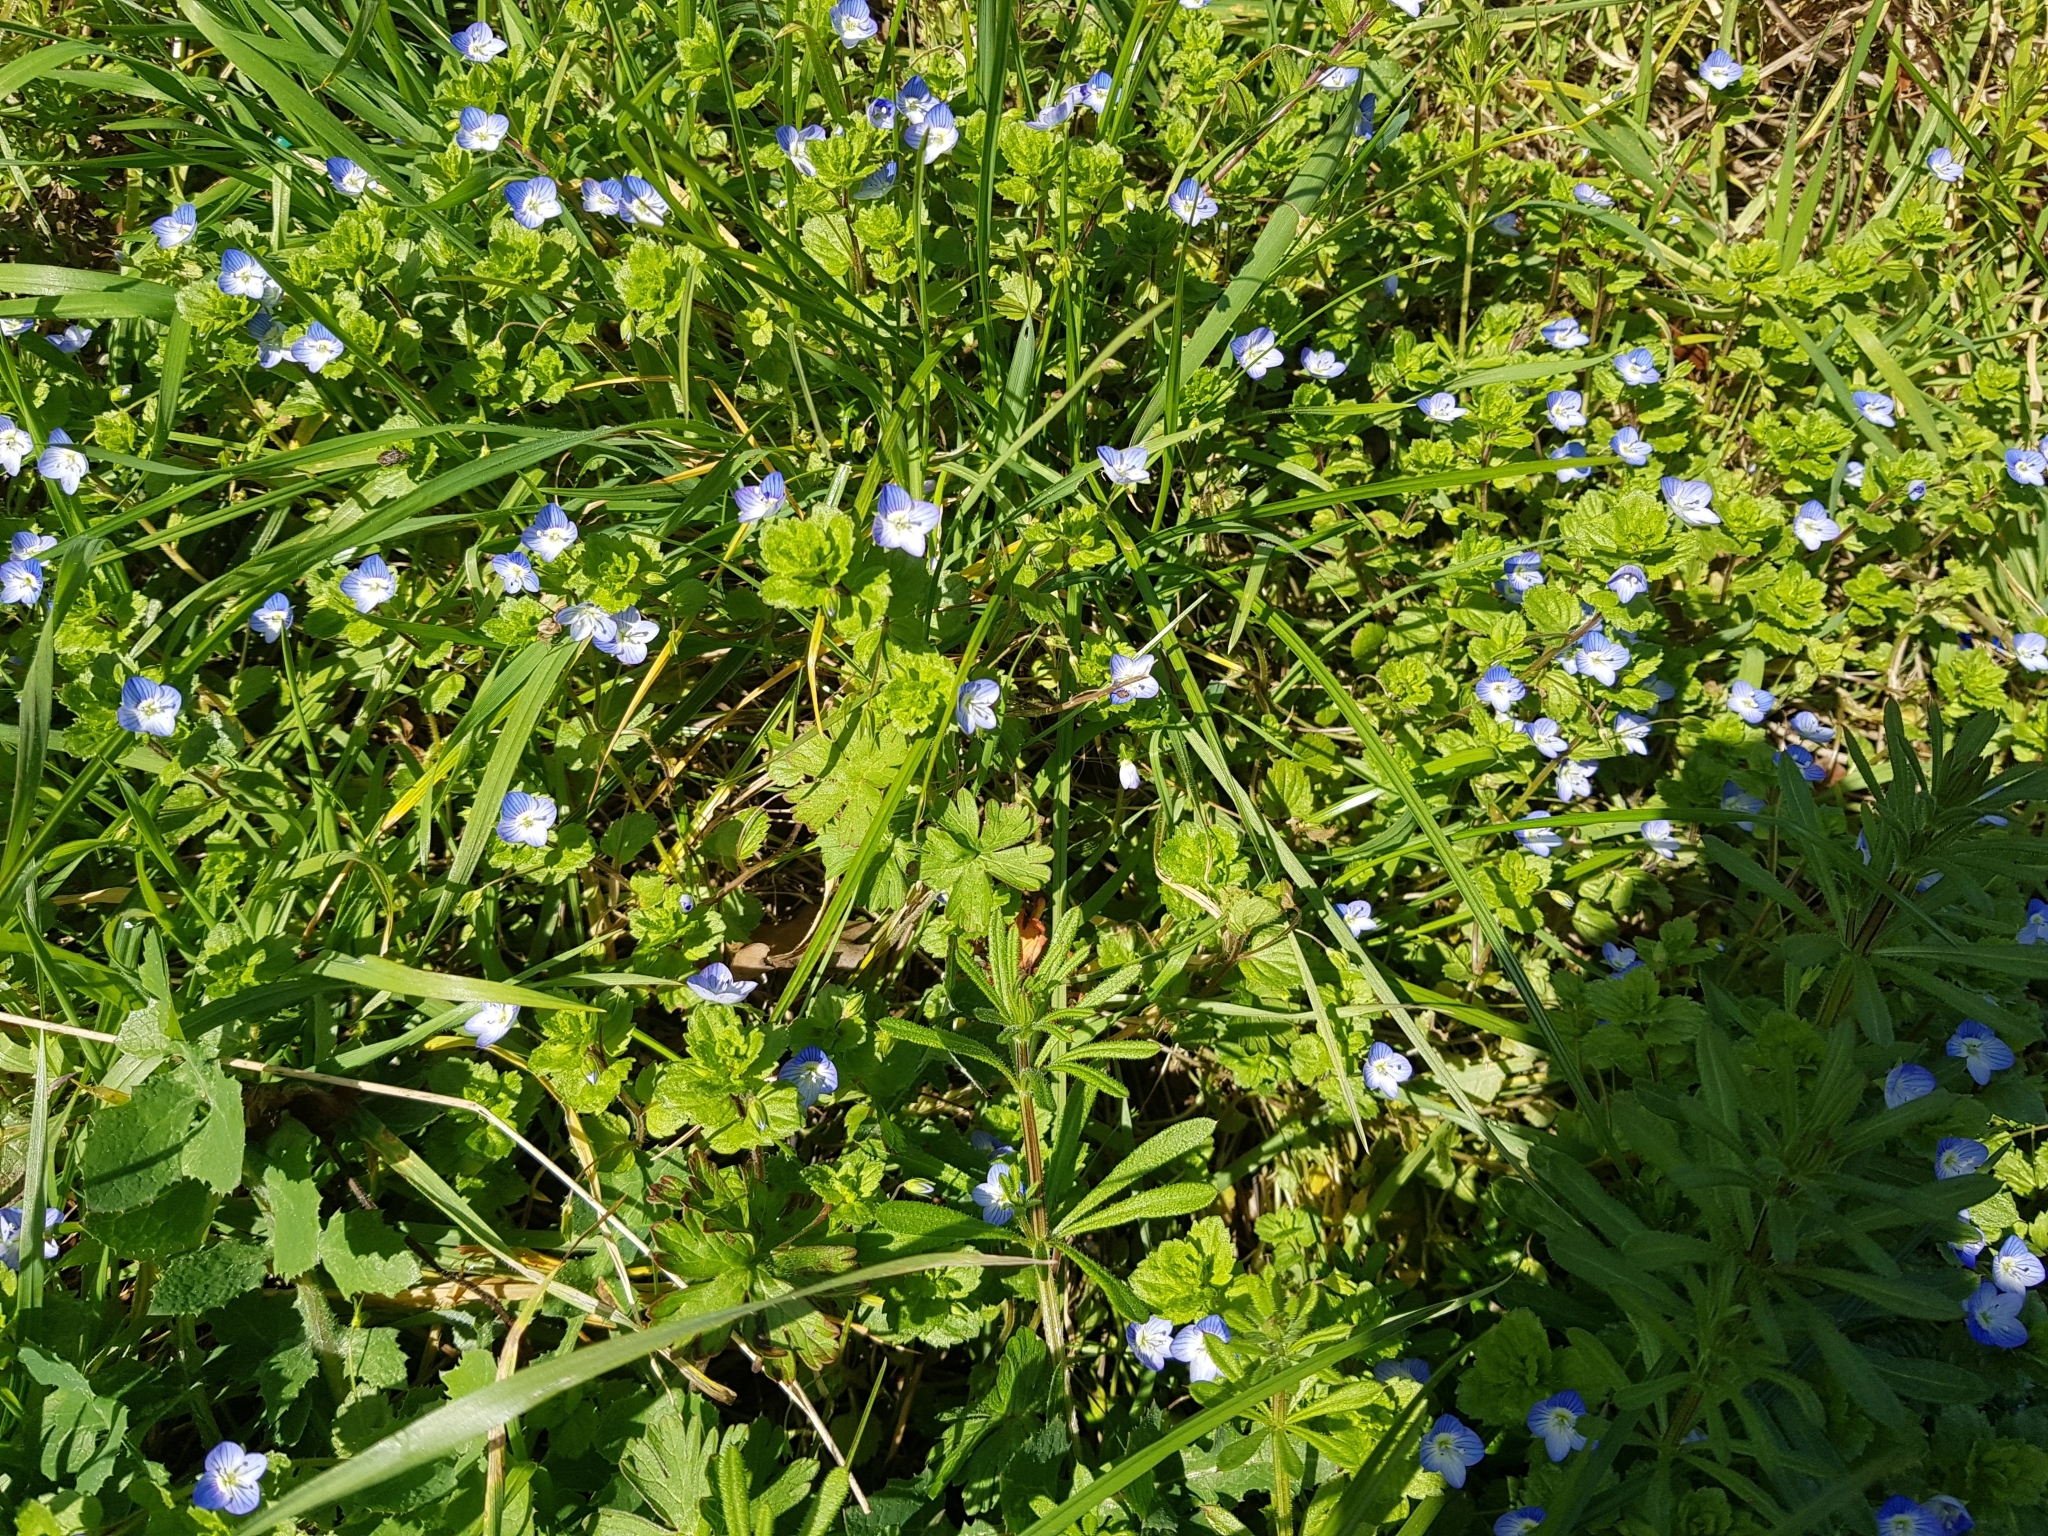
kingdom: Plantae
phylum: Tracheophyta
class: Magnoliopsida
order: Lamiales
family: Plantaginaceae
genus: Veronica
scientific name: Veronica persica
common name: Common field-speedwell
